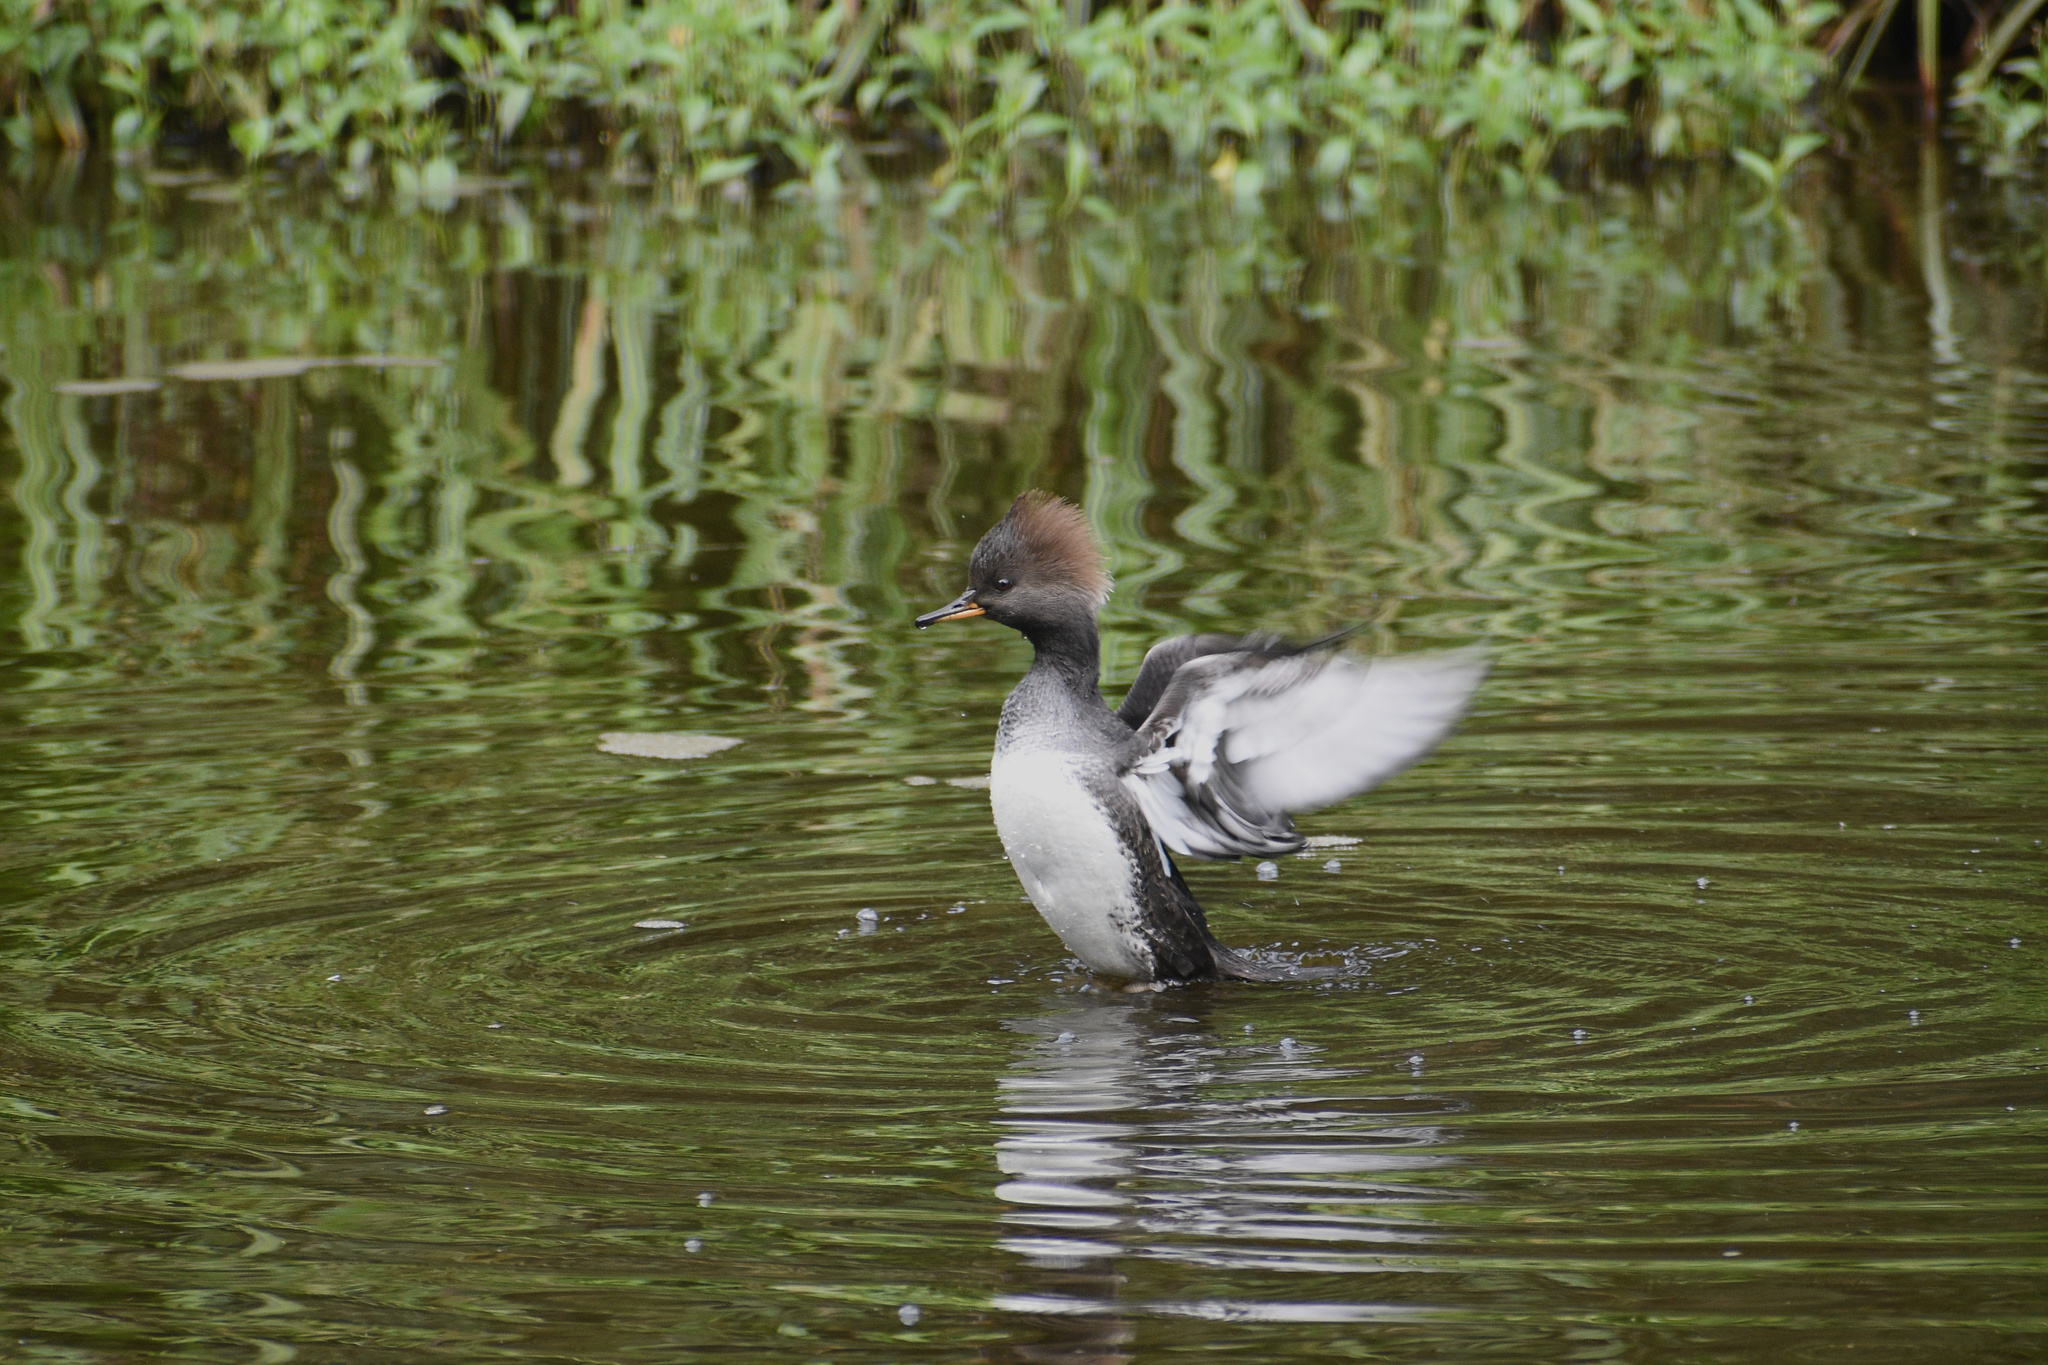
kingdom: Animalia
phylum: Chordata
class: Aves
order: Anseriformes
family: Anatidae
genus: Lophodytes
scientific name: Lophodytes cucullatus
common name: Hooded merganser
